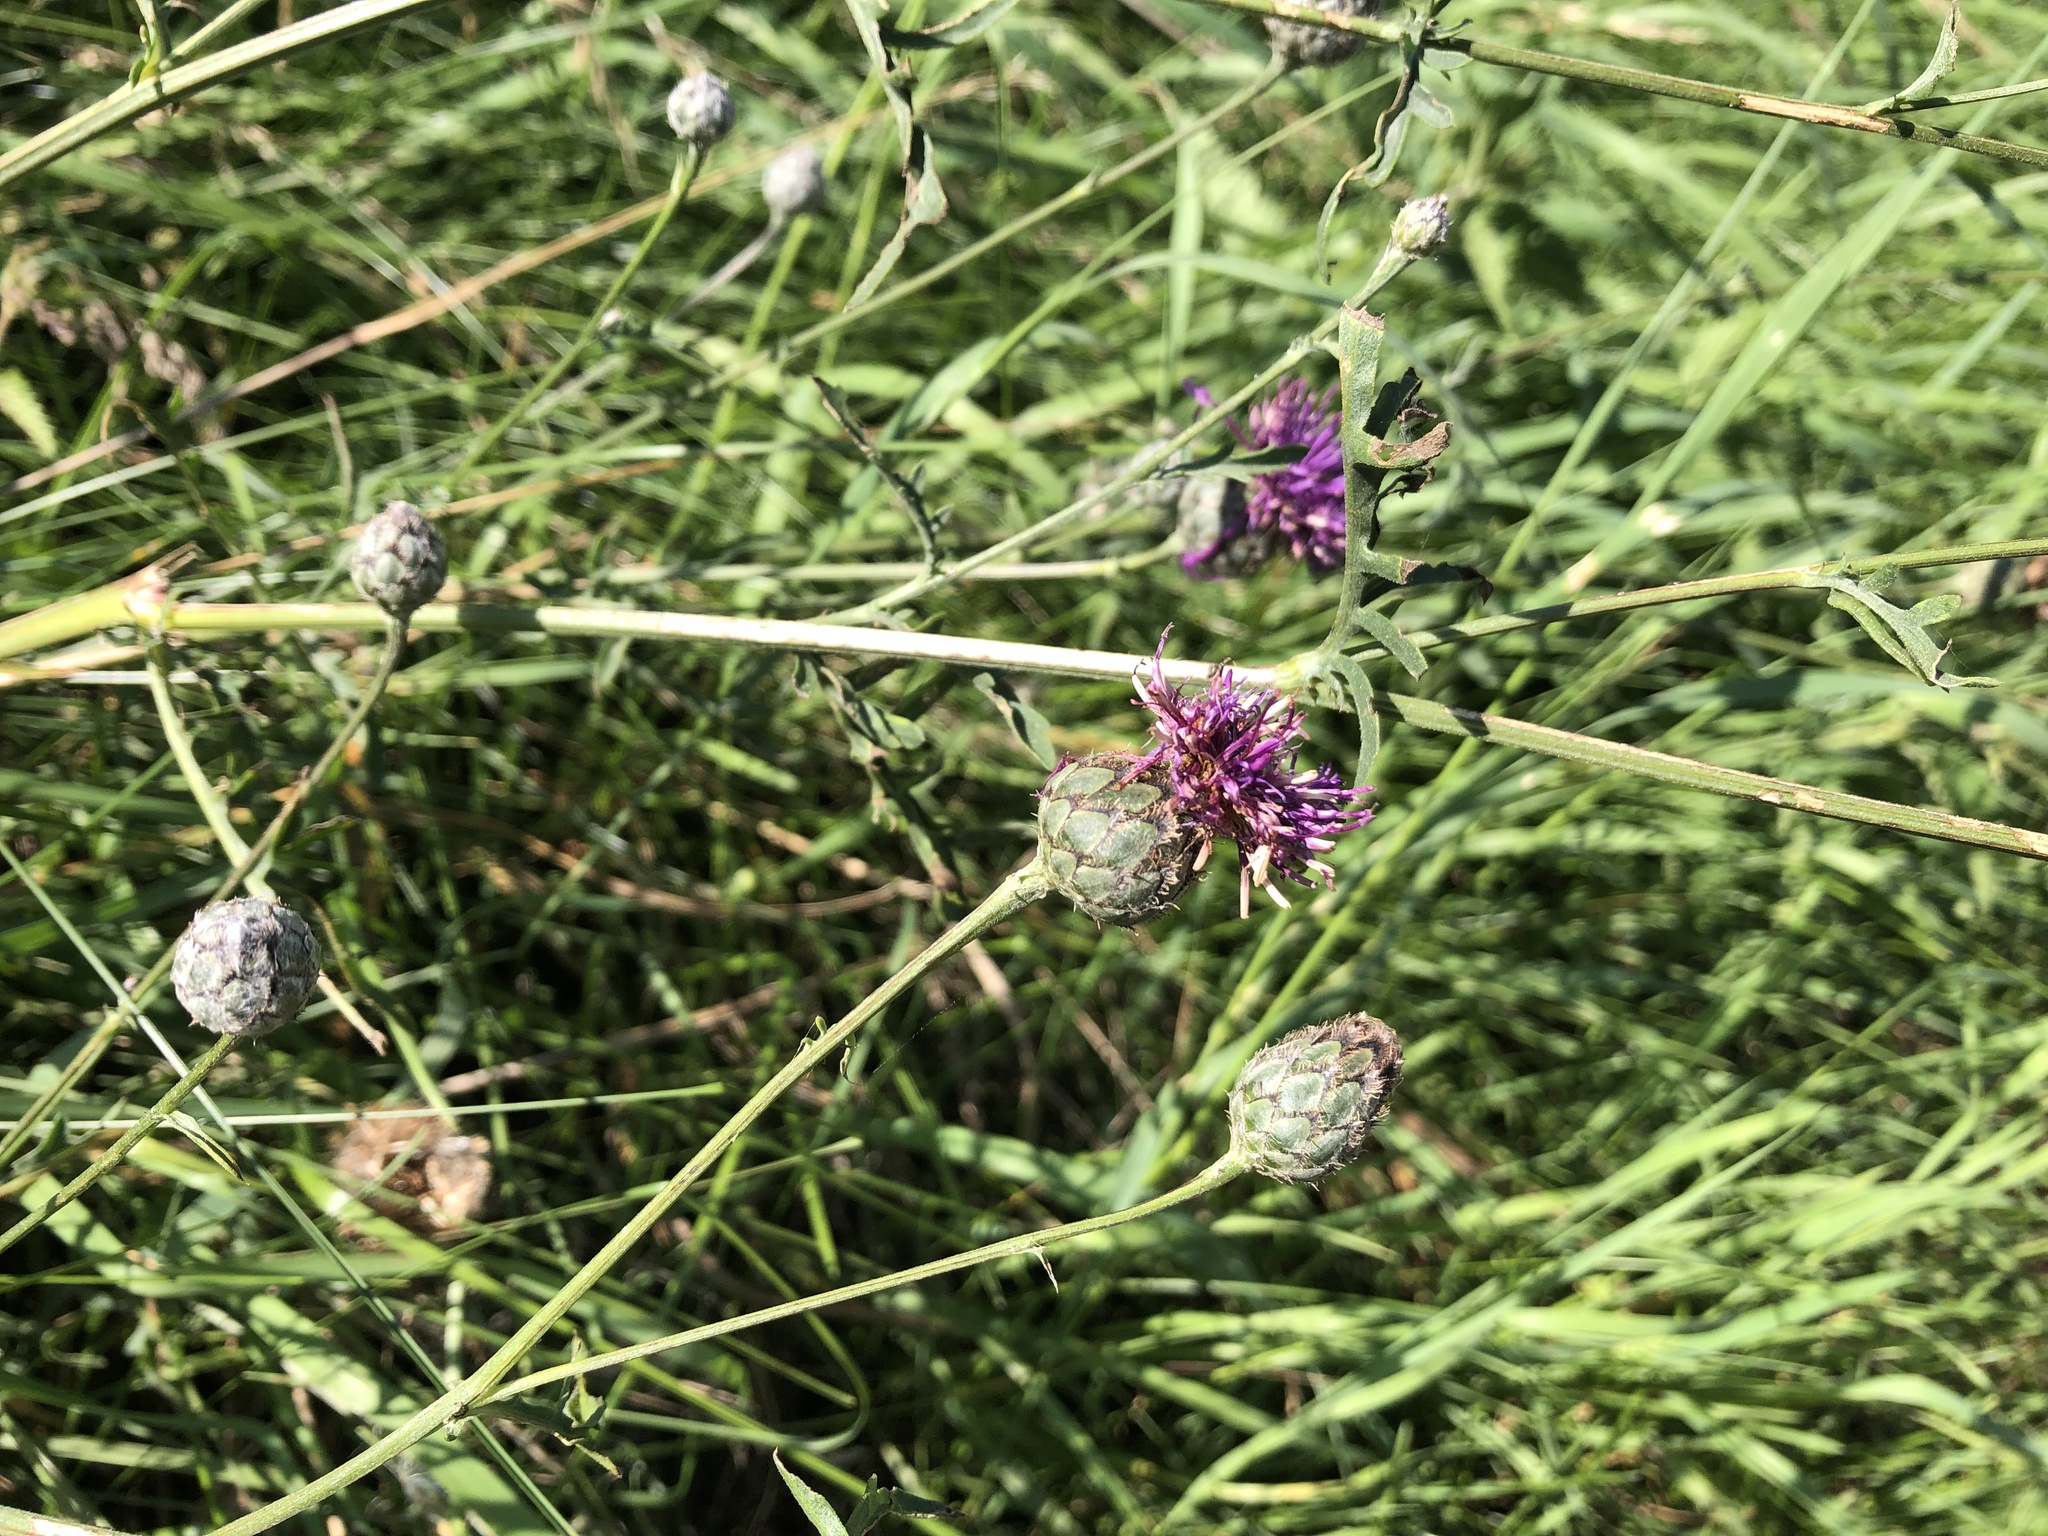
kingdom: Plantae
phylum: Tracheophyta
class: Magnoliopsida
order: Asterales
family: Asteraceae
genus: Centaurea
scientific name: Centaurea scabiosa
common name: Greater knapweed
